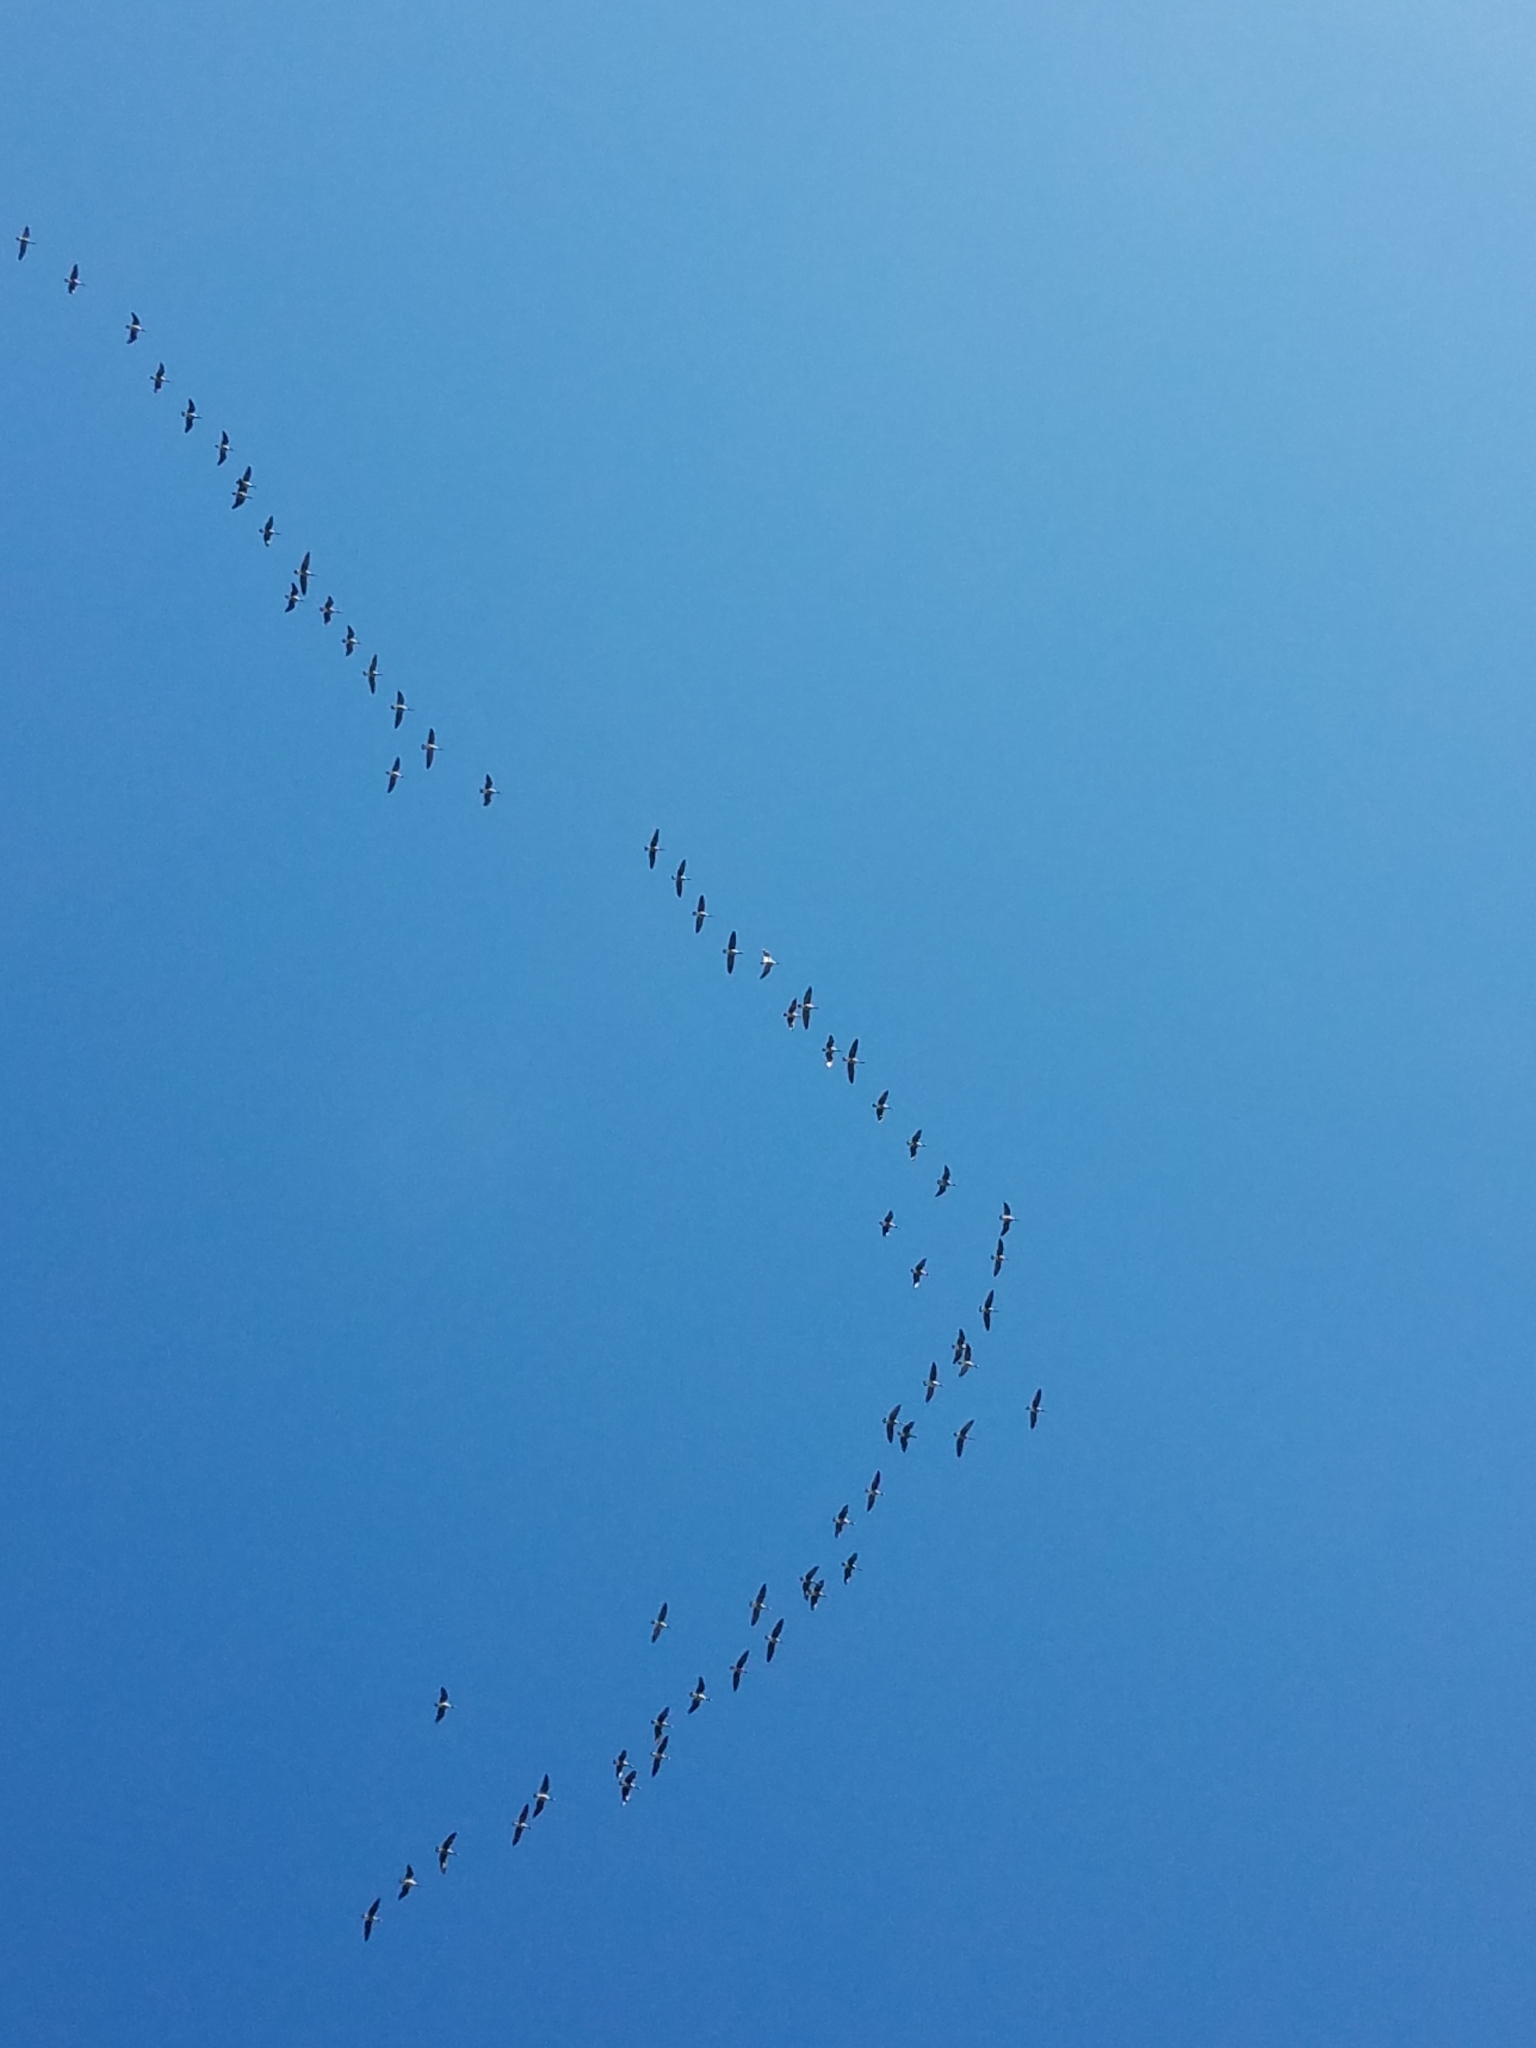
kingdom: Animalia
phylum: Chordata
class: Aves
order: Anseriformes
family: Anatidae
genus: Branta
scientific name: Branta canadensis
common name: Canada goose
